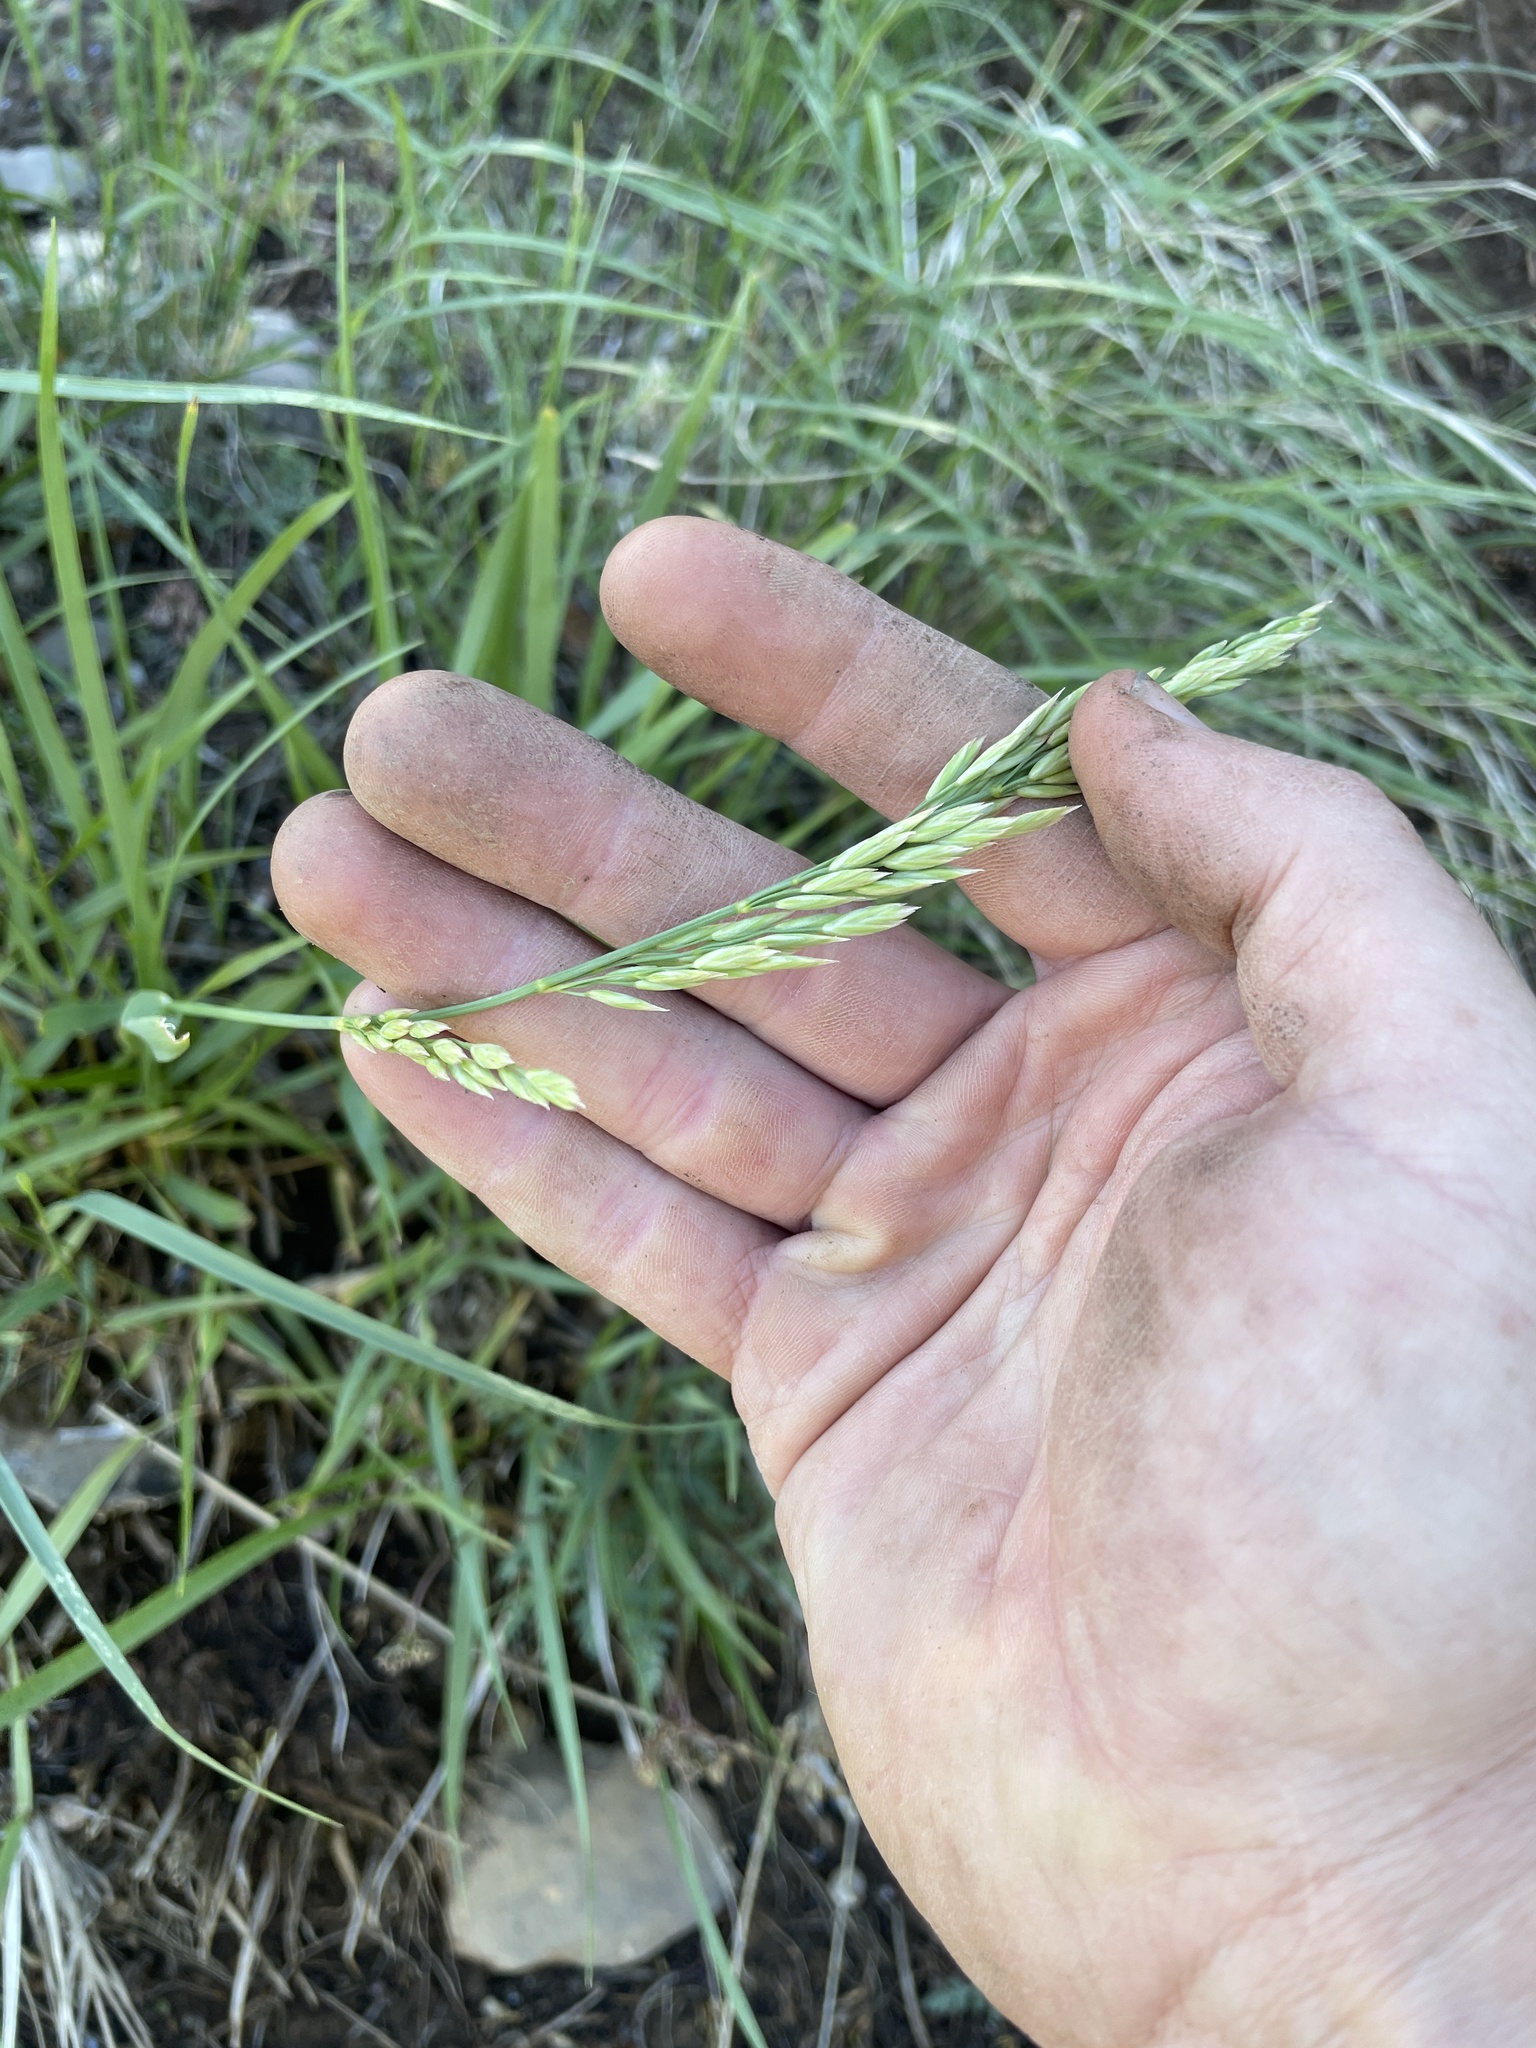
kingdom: Plantae
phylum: Tracheophyta
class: Liliopsida
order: Poales
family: Poaceae
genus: Festuca
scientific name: Festuca kingii
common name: Spike fescue
